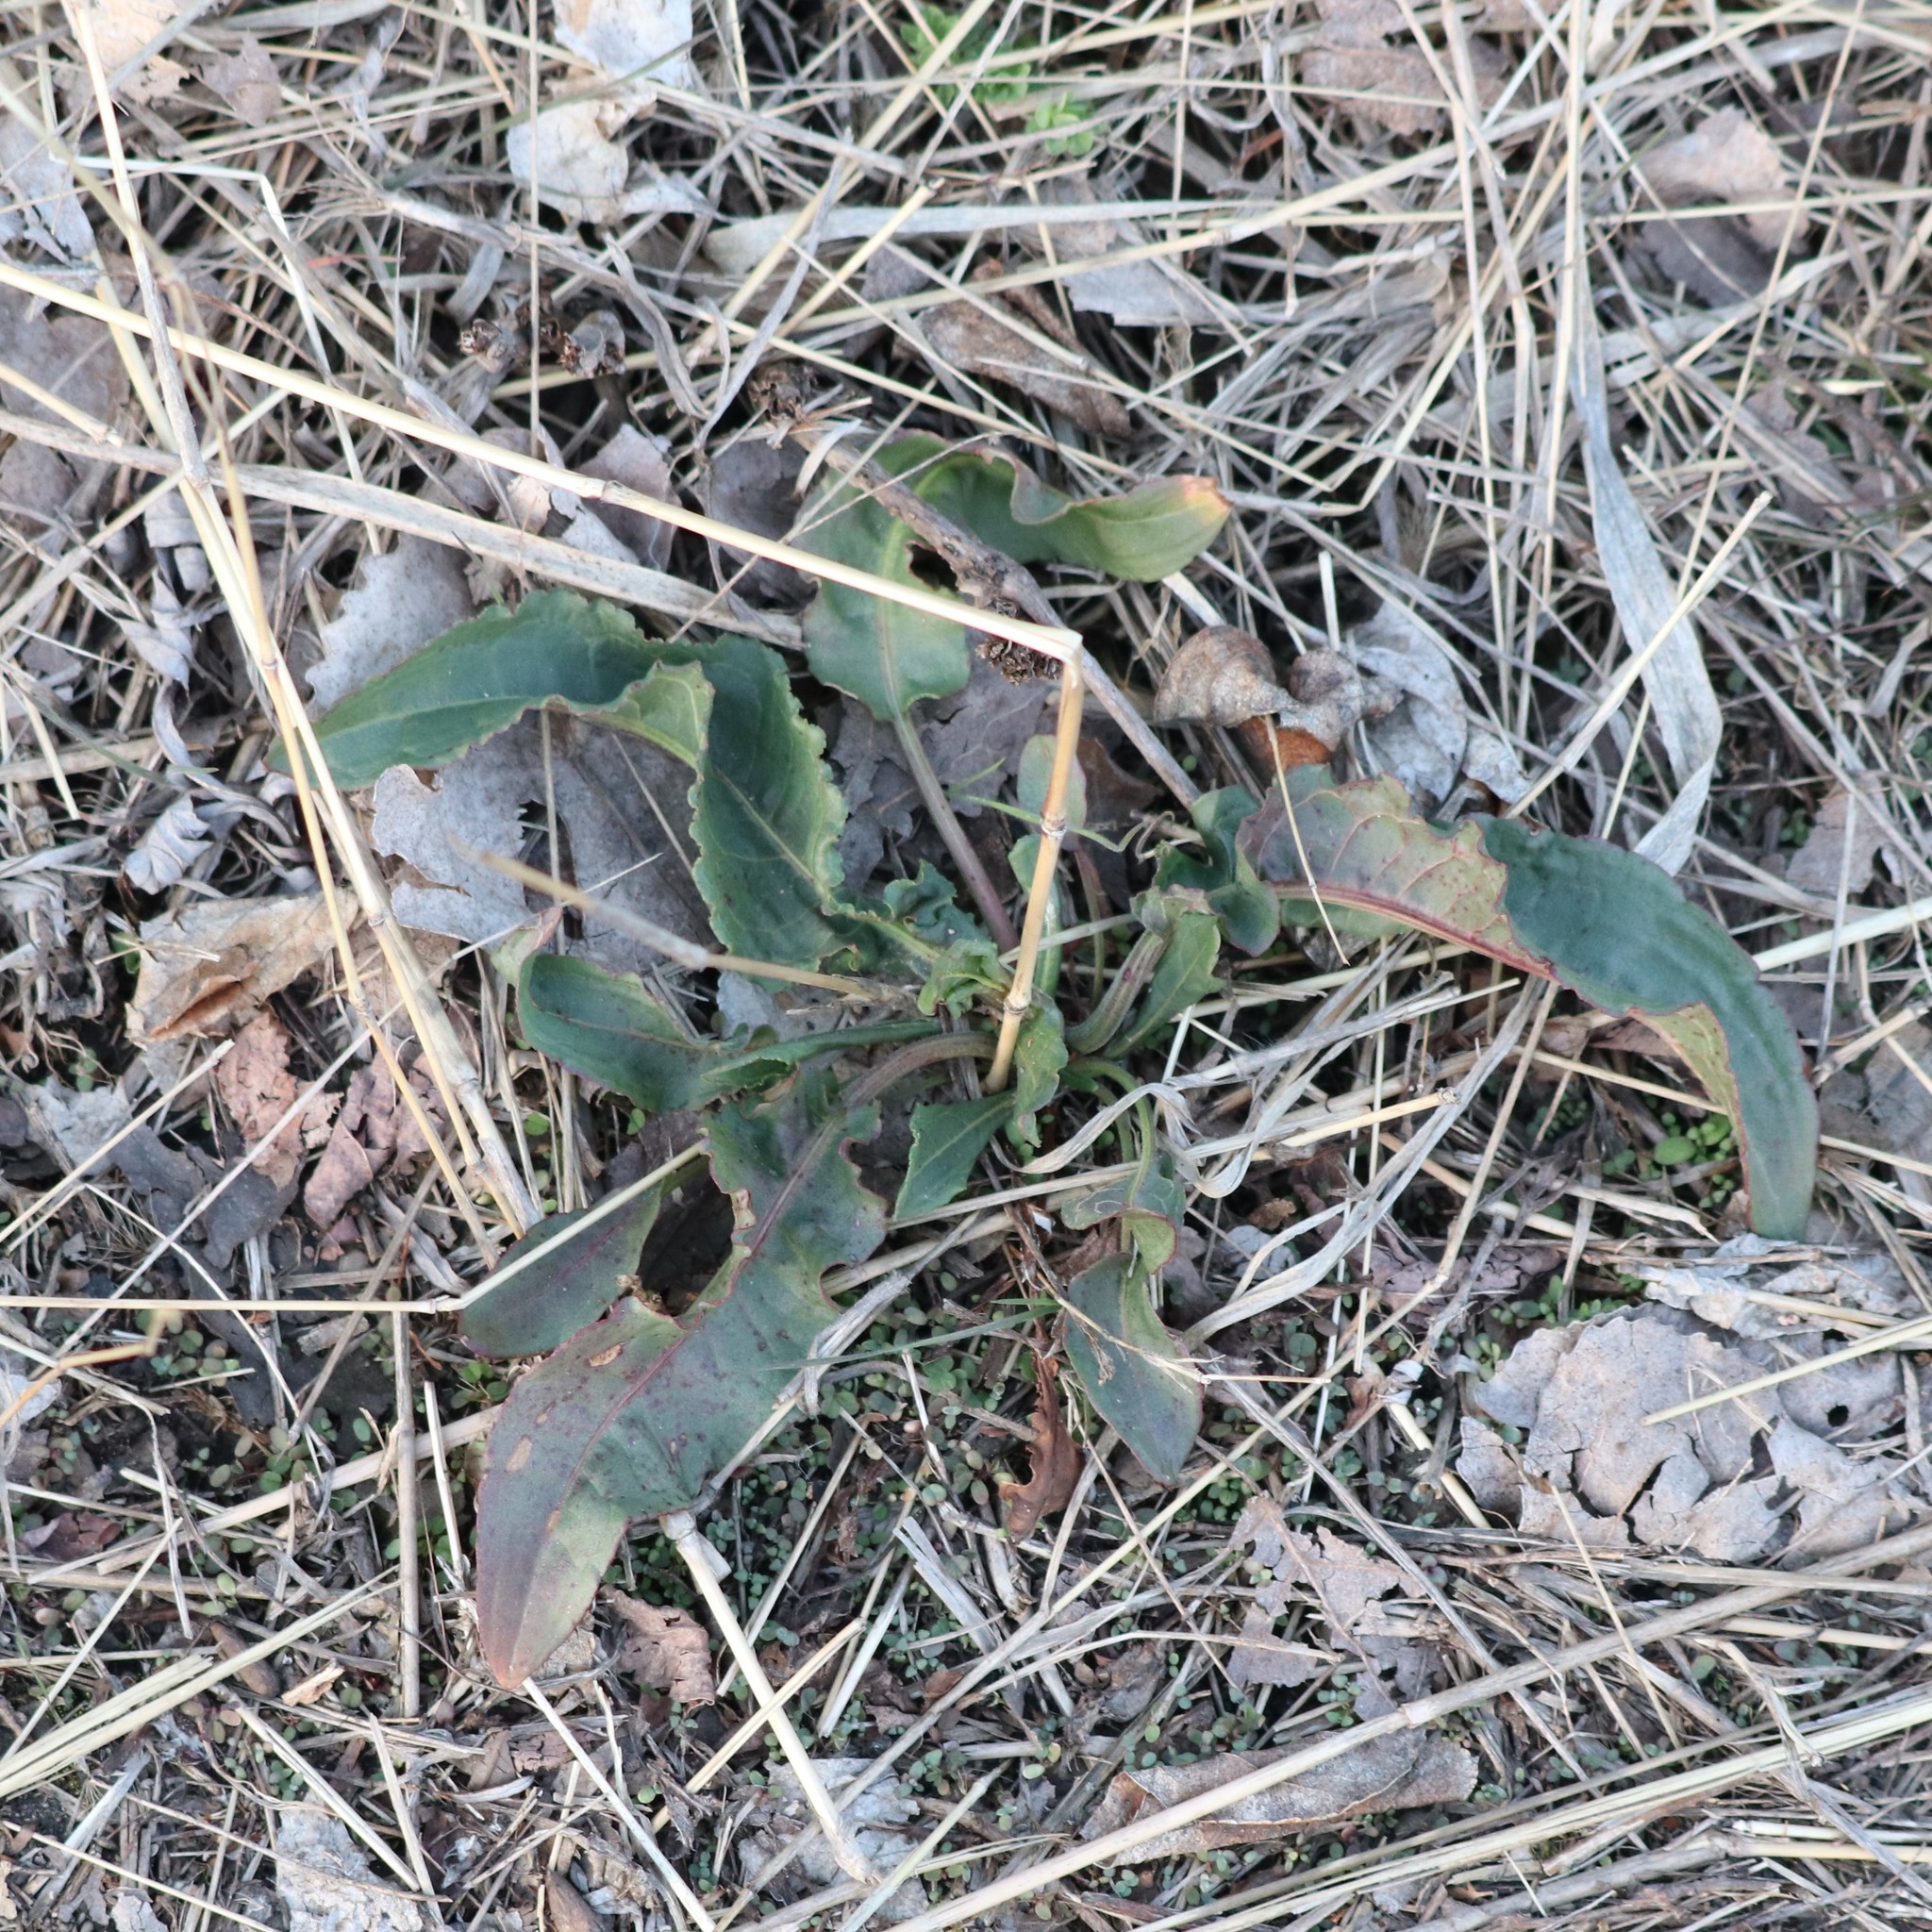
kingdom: Plantae
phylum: Tracheophyta
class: Magnoliopsida
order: Caryophyllales
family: Polygonaceae
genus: Rumex
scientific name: Rumex crispus
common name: Curled dock
